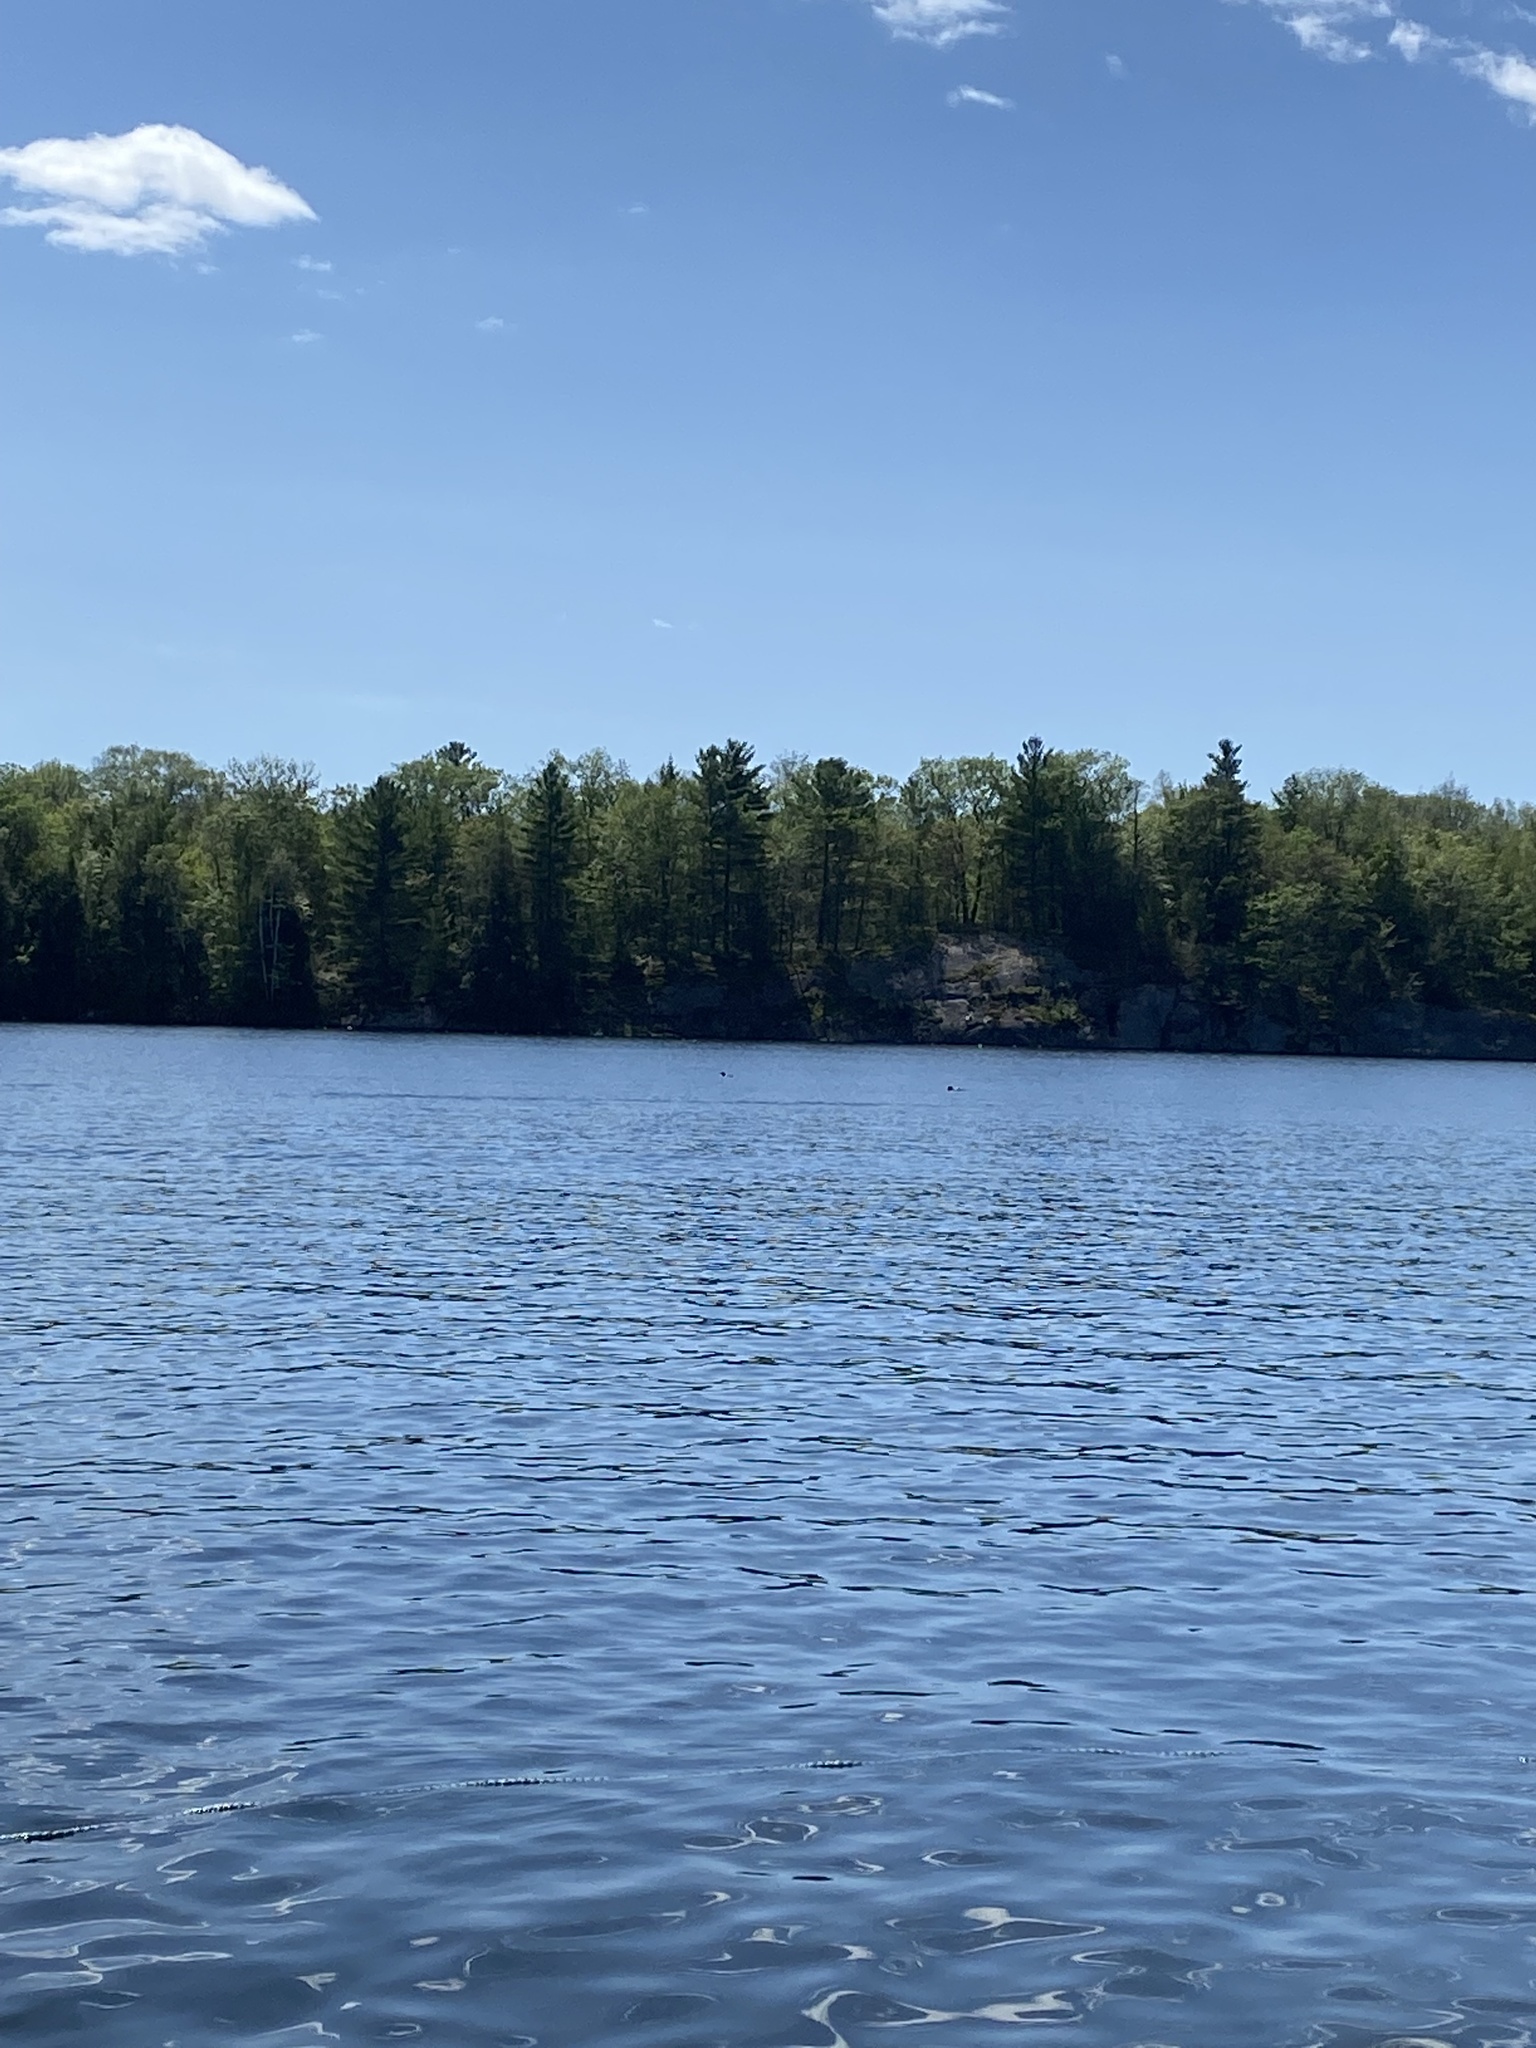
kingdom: Animalia
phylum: Chordata
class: Aves
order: Gaviiformes
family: Gaviidae
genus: Gavia
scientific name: Gavia immer
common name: Common loon
